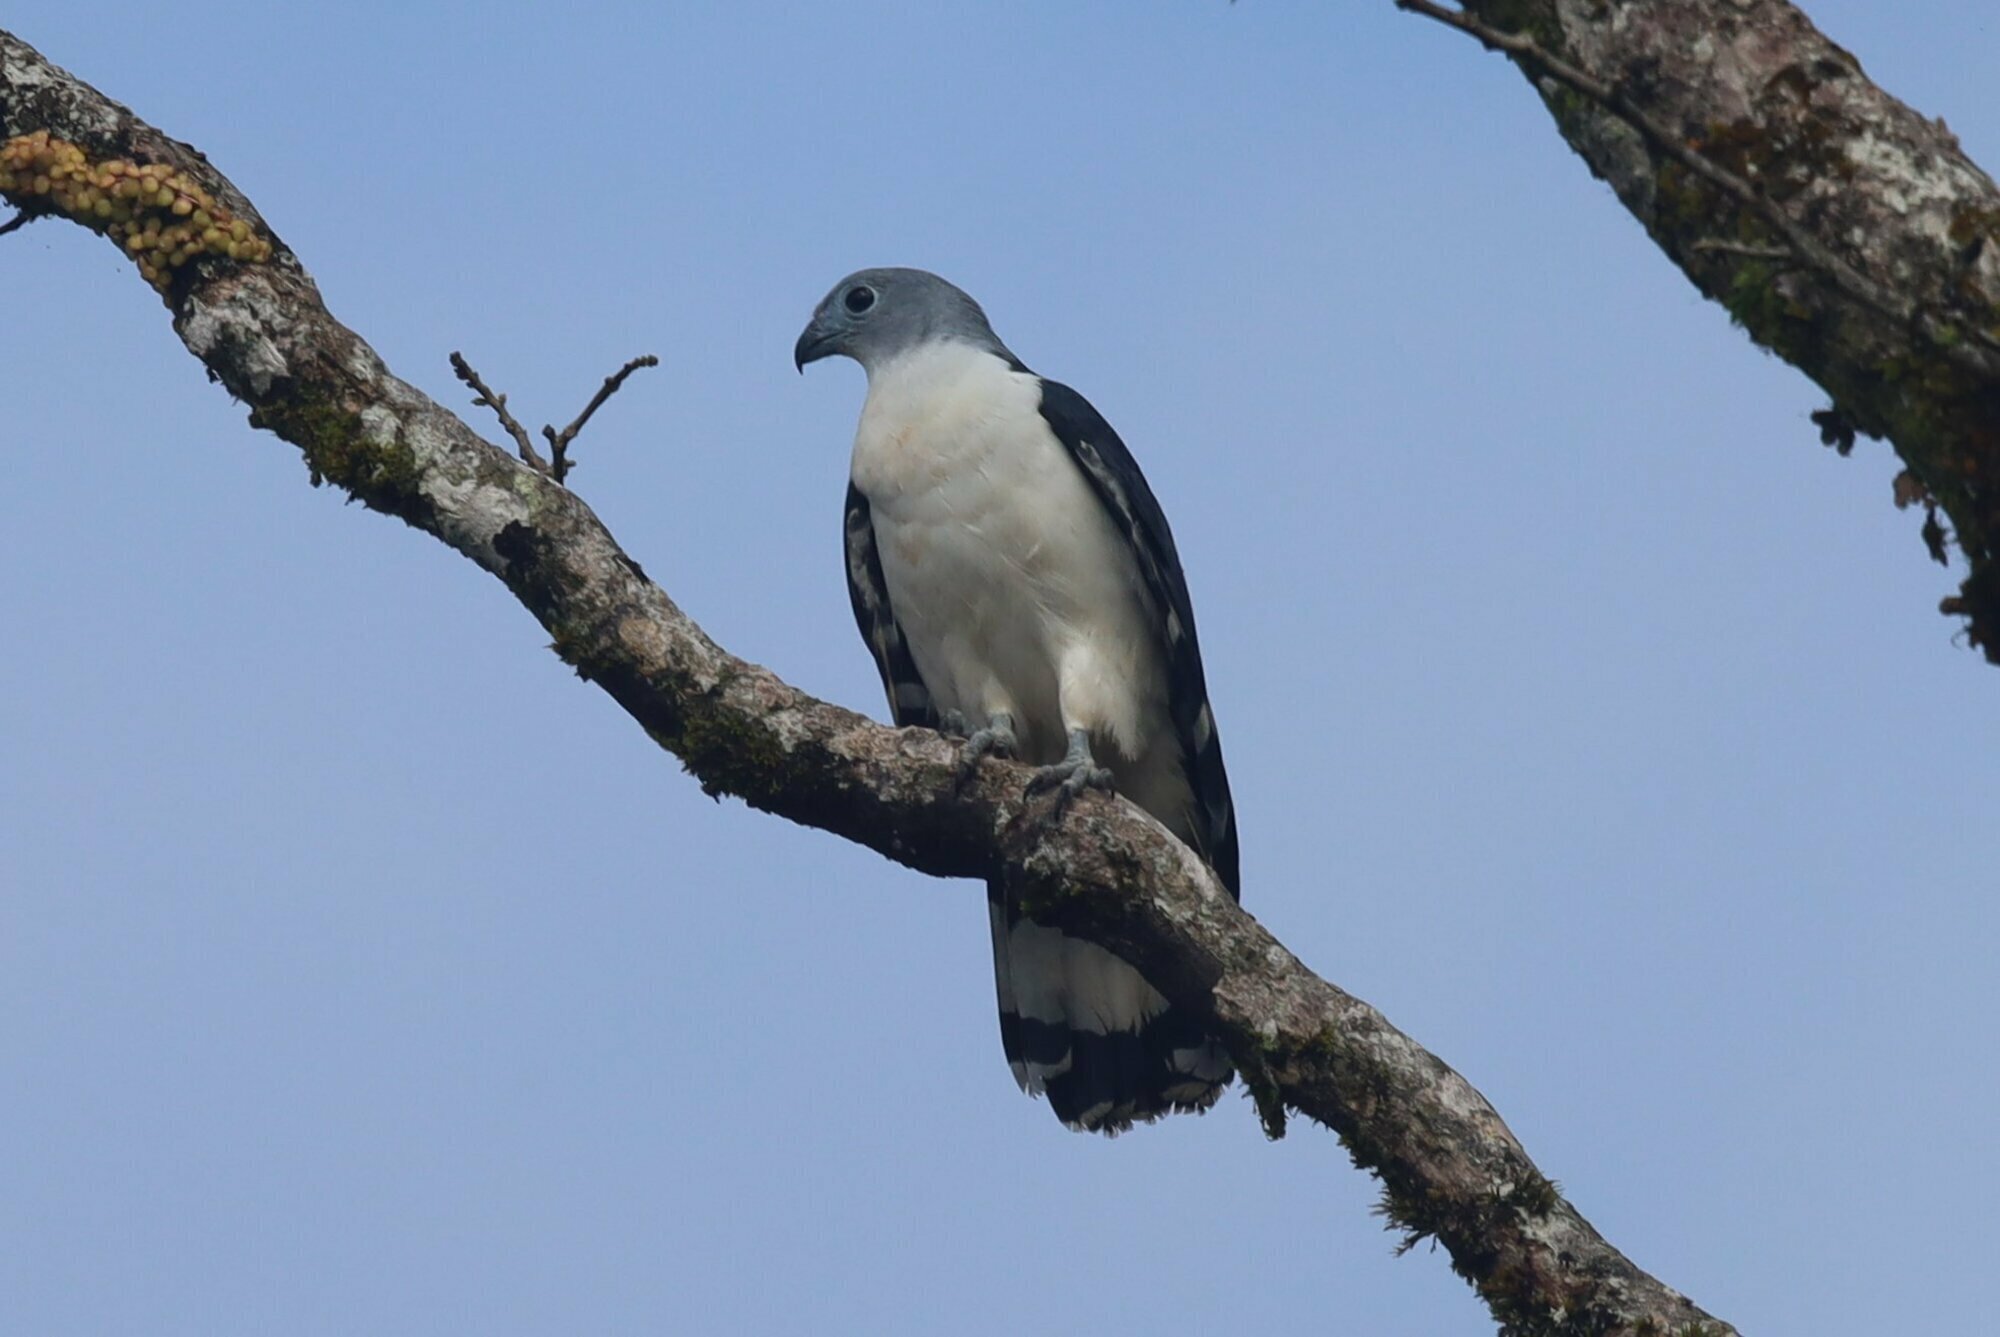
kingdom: Animalia
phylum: Chordata
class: Aves
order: Accipitriformes
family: Accipitridae
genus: Leptodon
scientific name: Leptodon cayanensis
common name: Gray-headed kite
